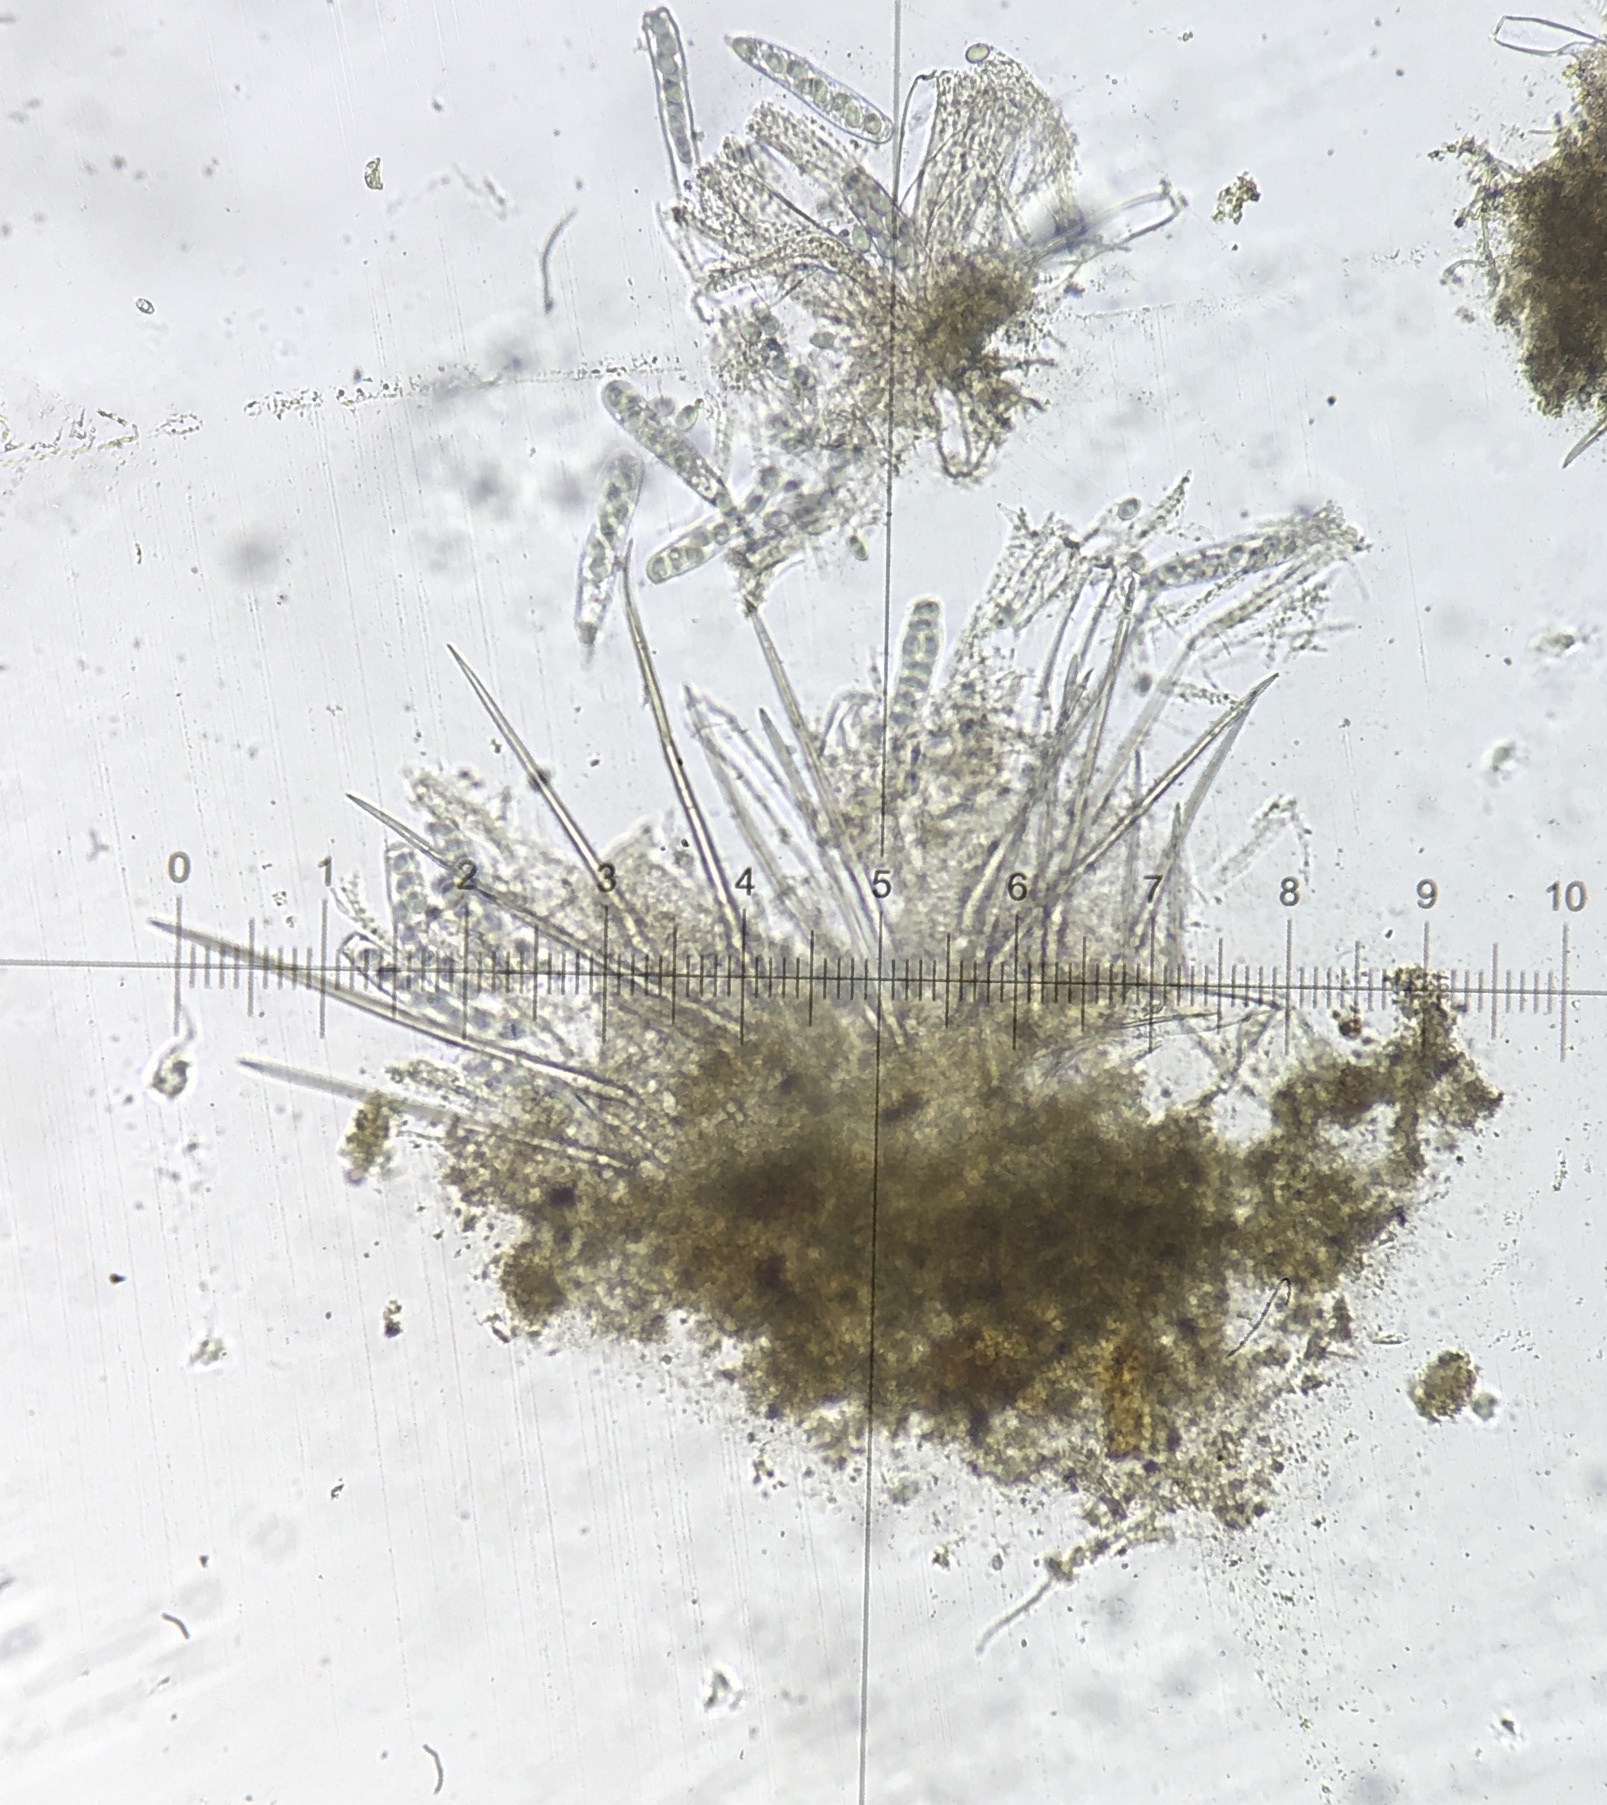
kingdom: Fungi
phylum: Ascomycota
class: Pezizomycetes
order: Pezizales
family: Ascodesmidaceae
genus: Lasiobolus
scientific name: Lasiobolus cuniculi
